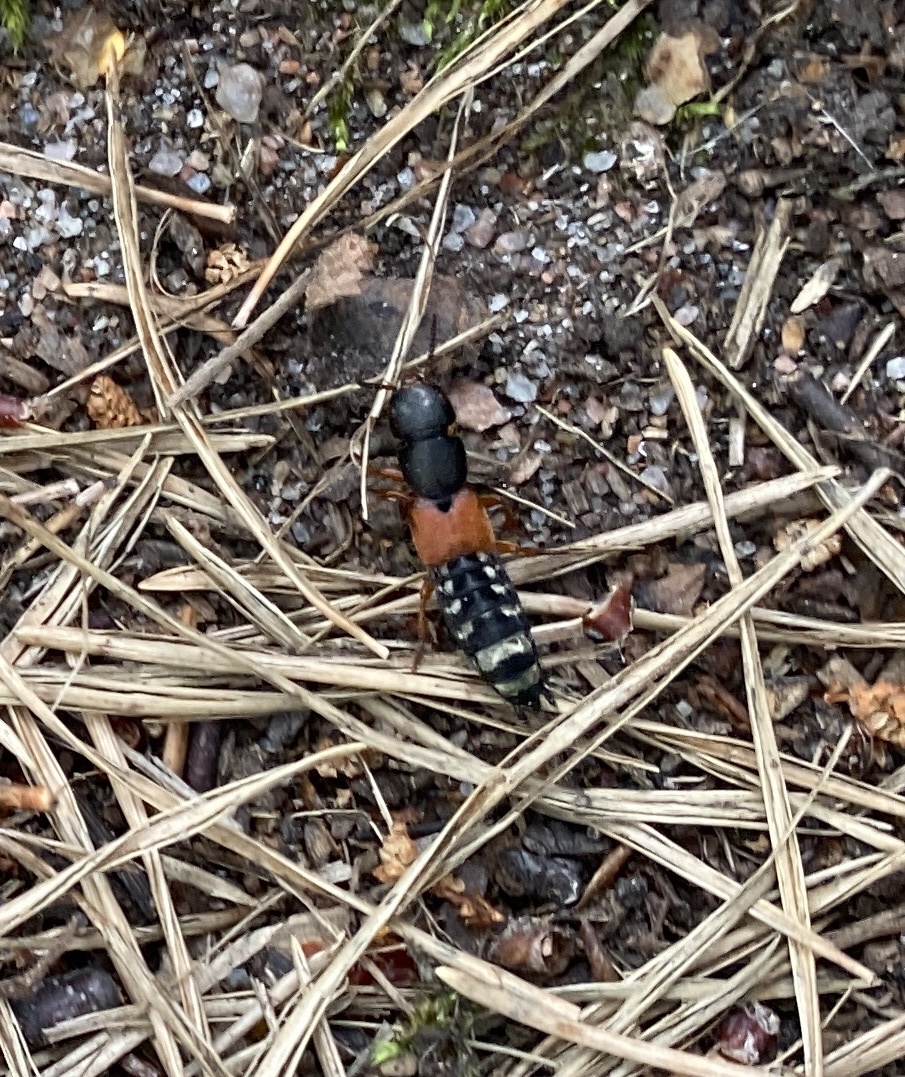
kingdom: Animalia
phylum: Arthropoda
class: Insecta
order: Coleoptera
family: Staphylinidae
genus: Platydracus
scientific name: Platydracus stercorarius
